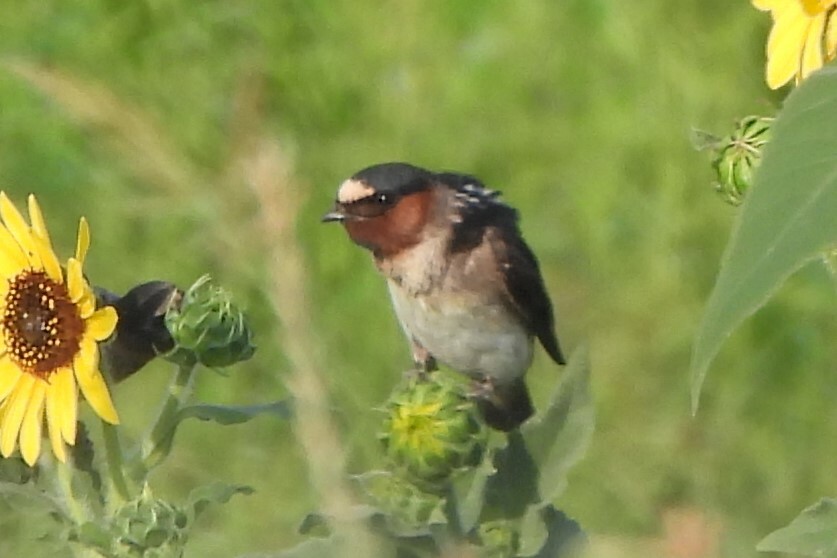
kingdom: Animalia
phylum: Chordata
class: Aves
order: Passeriformes
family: Hirundinidae
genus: Petrochelidon
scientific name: Petrochelidon pyrrhonota
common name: American cliff swallow
